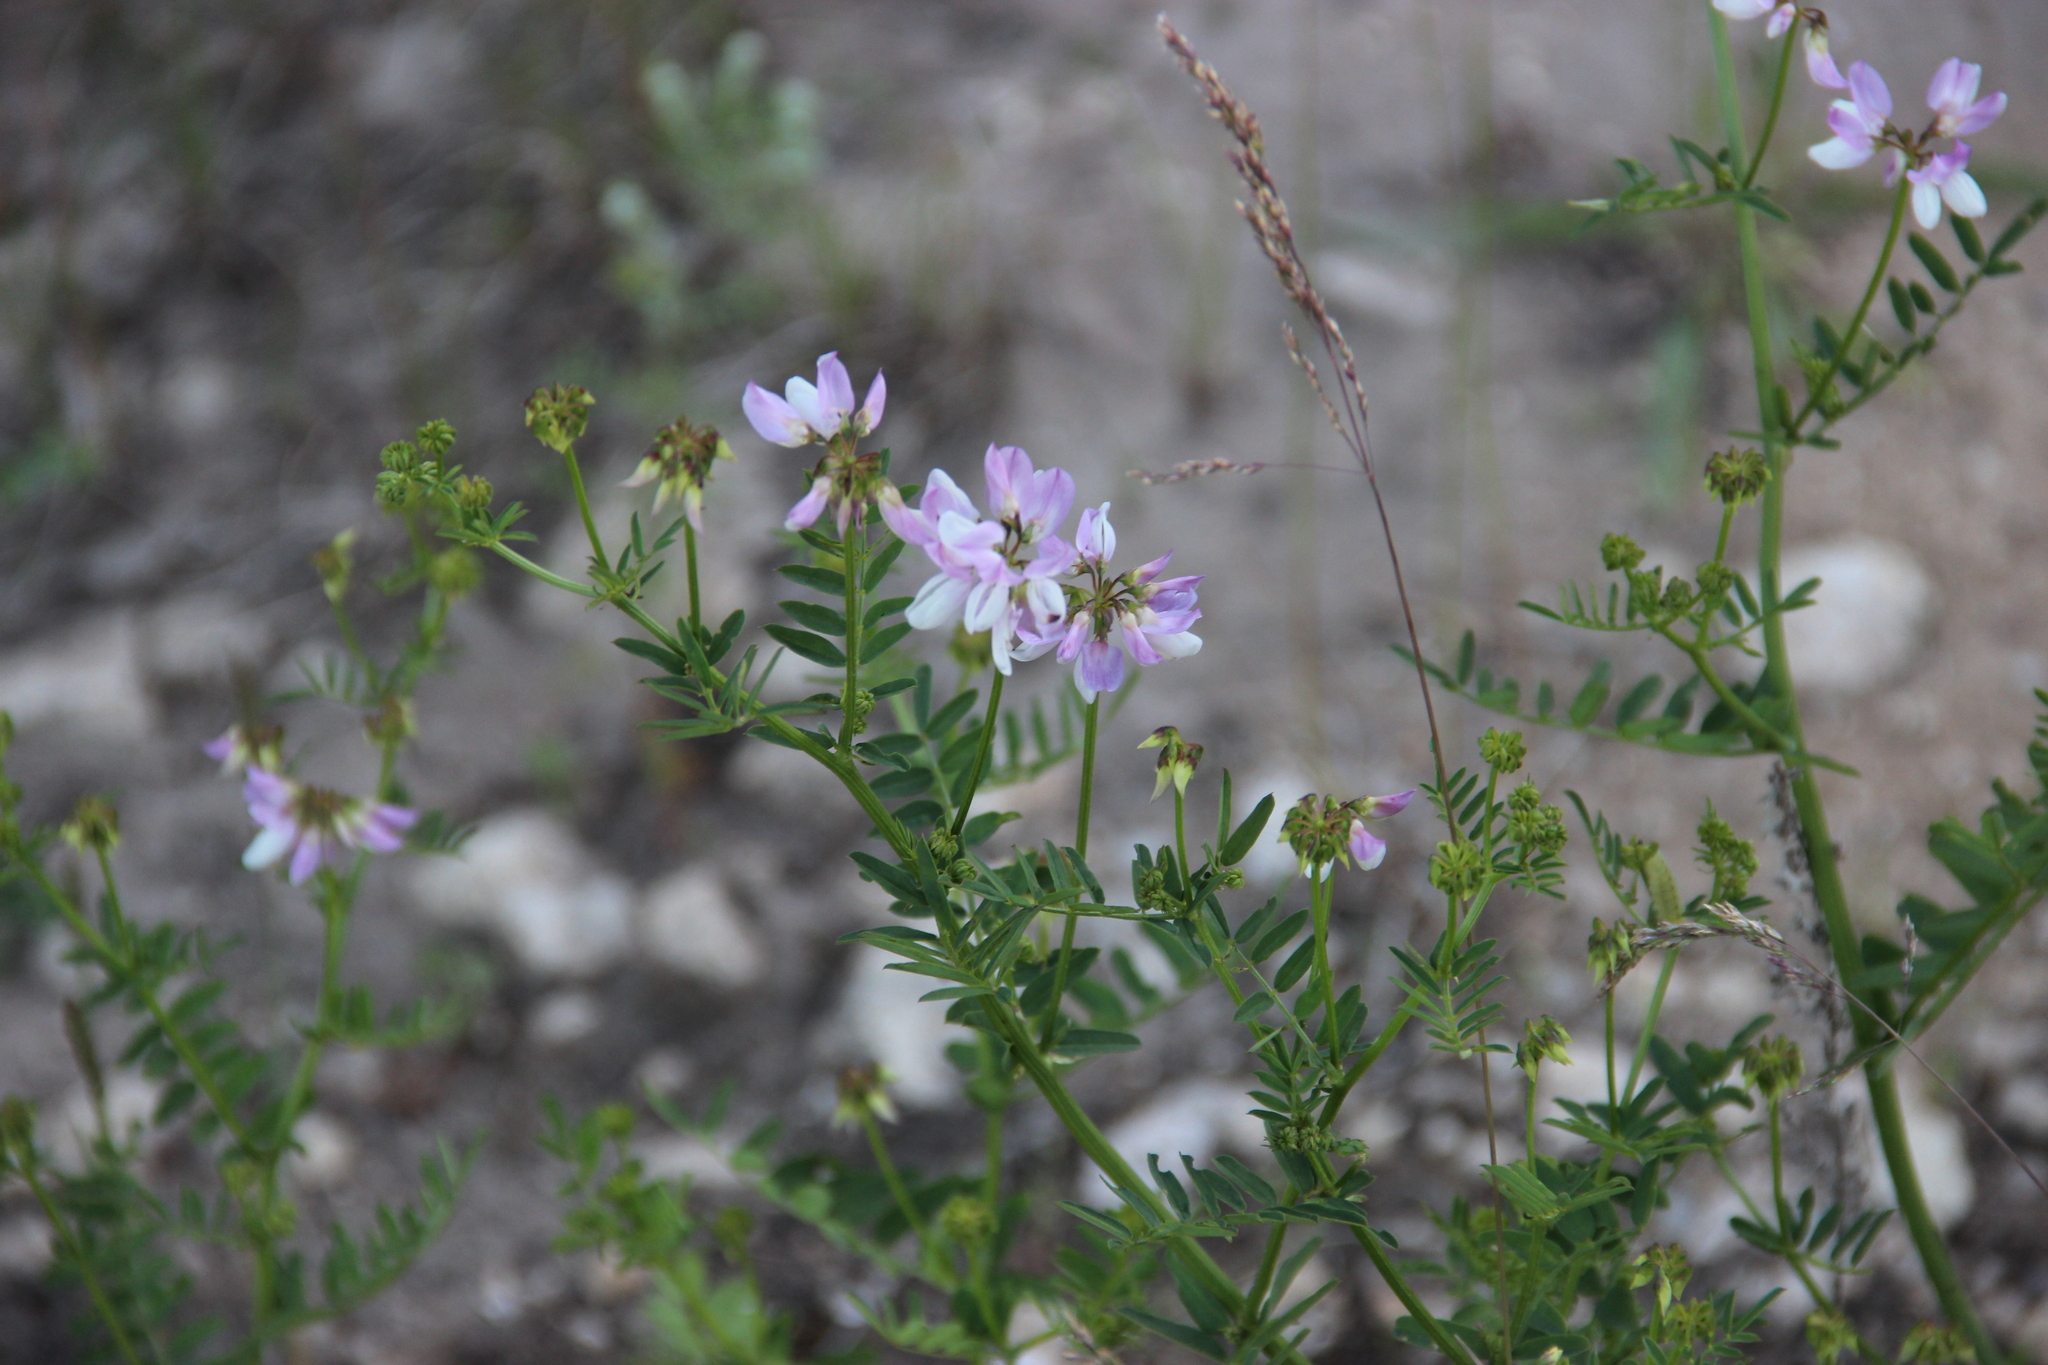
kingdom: Plantae
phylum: Tracheophyta
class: Magnoliopsida
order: Fabales
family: Fabaceae
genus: Coronilla
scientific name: Coronilla varia
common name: Crownvetch
